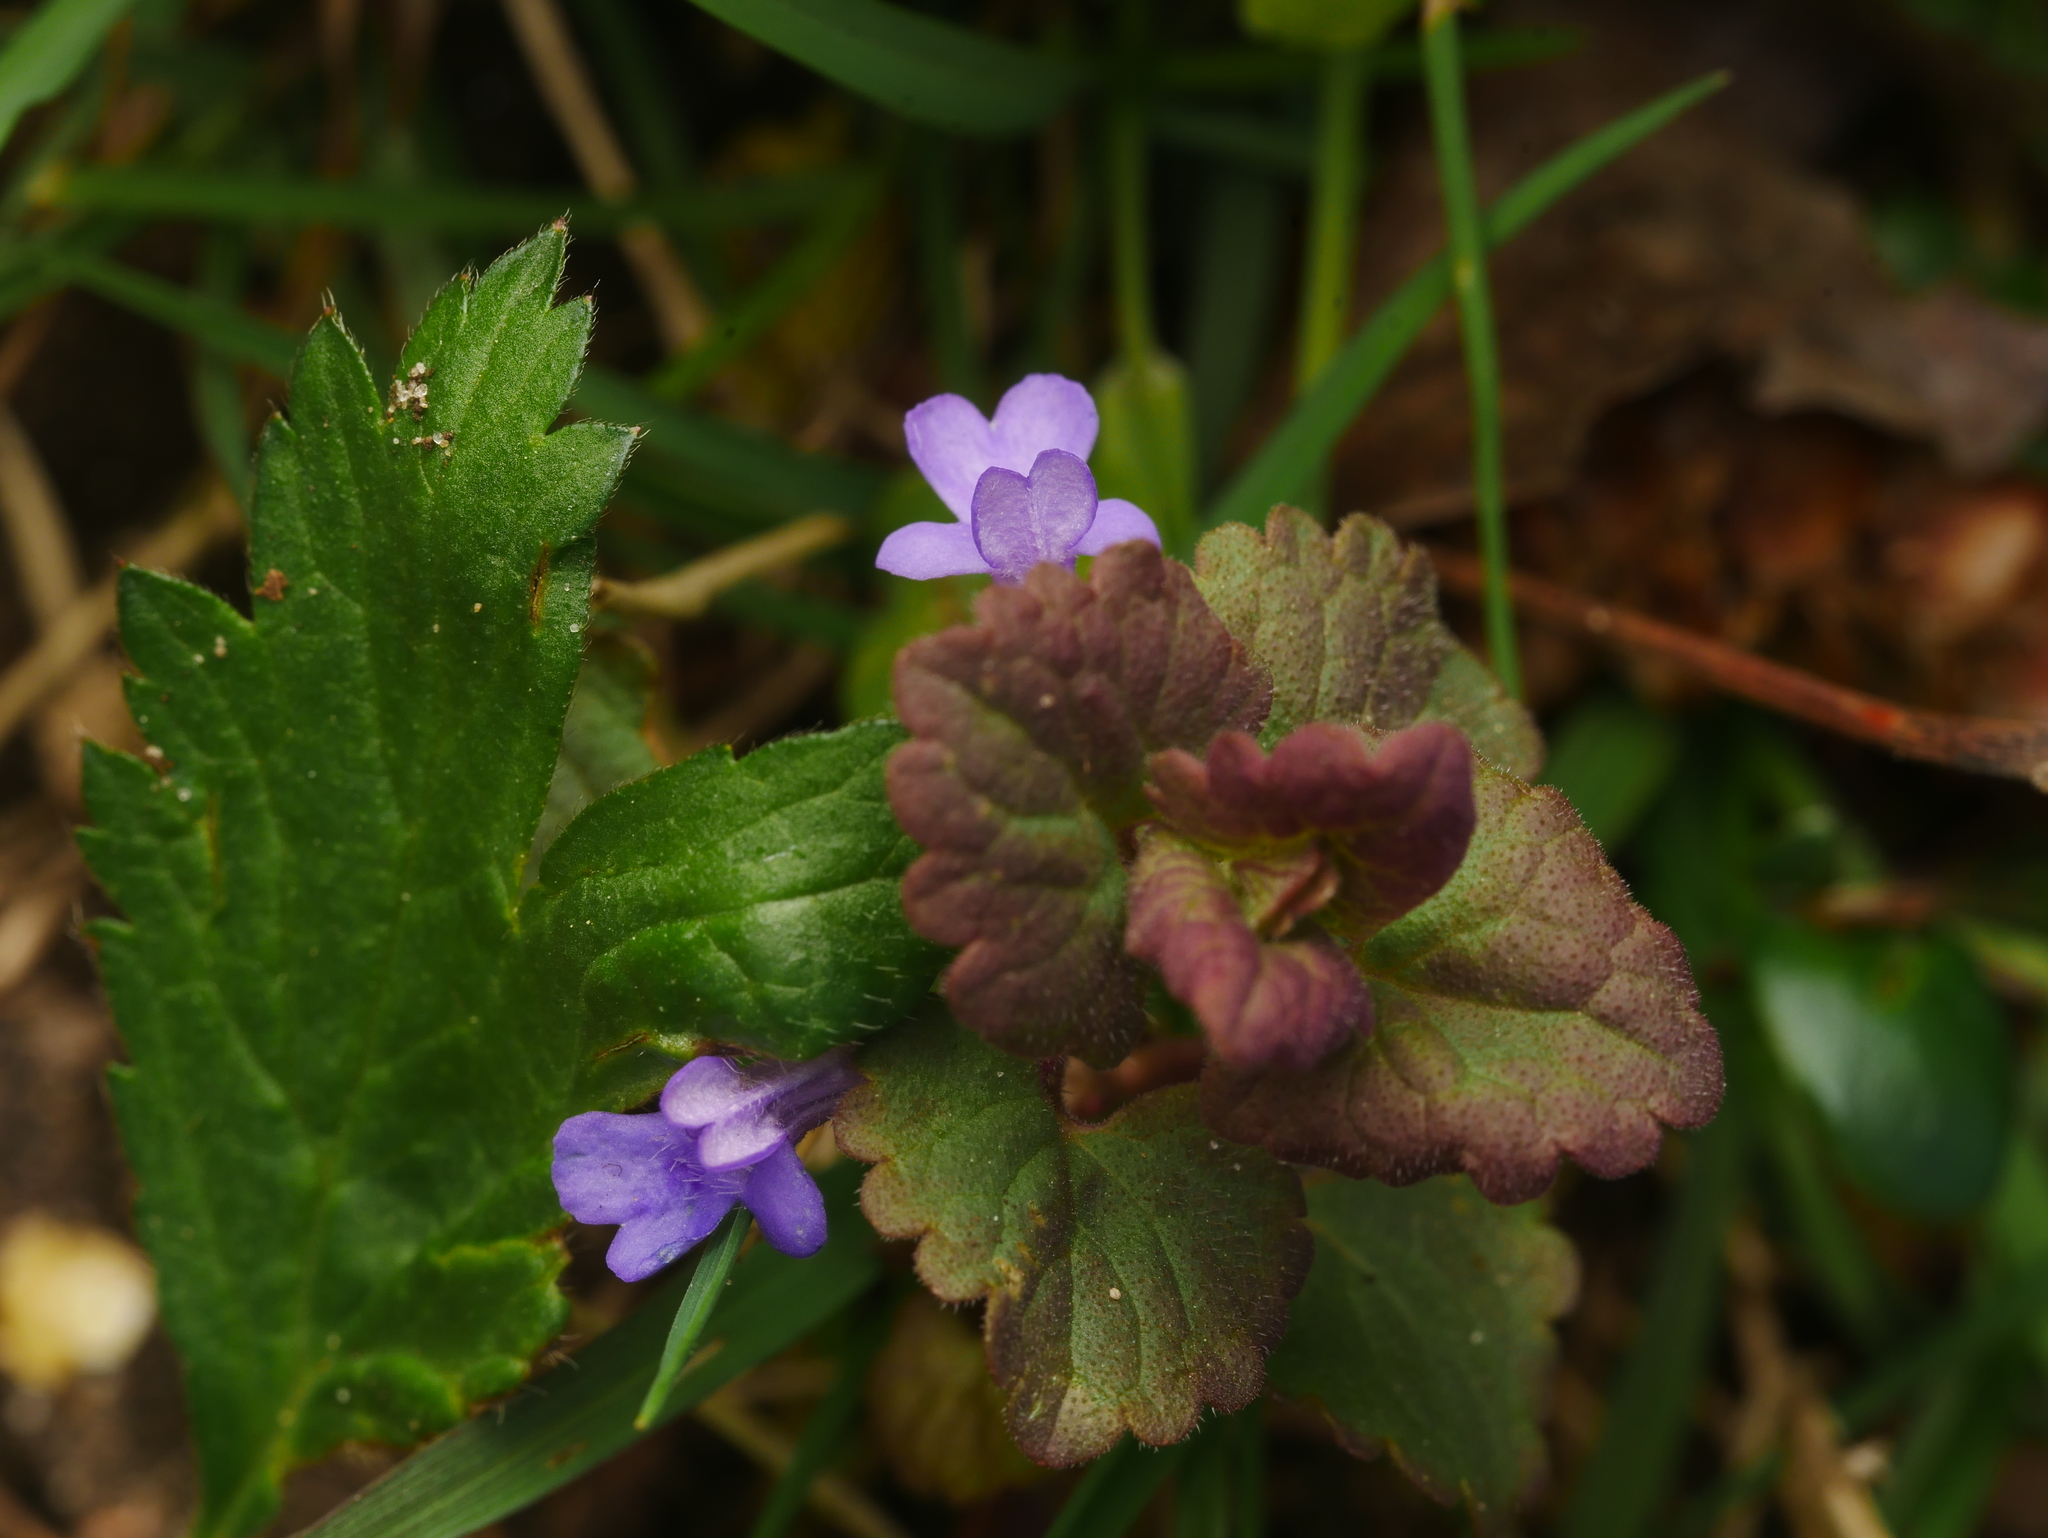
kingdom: Plantae
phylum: Tracheophyta
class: Magnoliopsida
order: Lamiales
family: Lamiaceae
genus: Glechoma
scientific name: Glechoma hederacea
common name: Ground ivy
